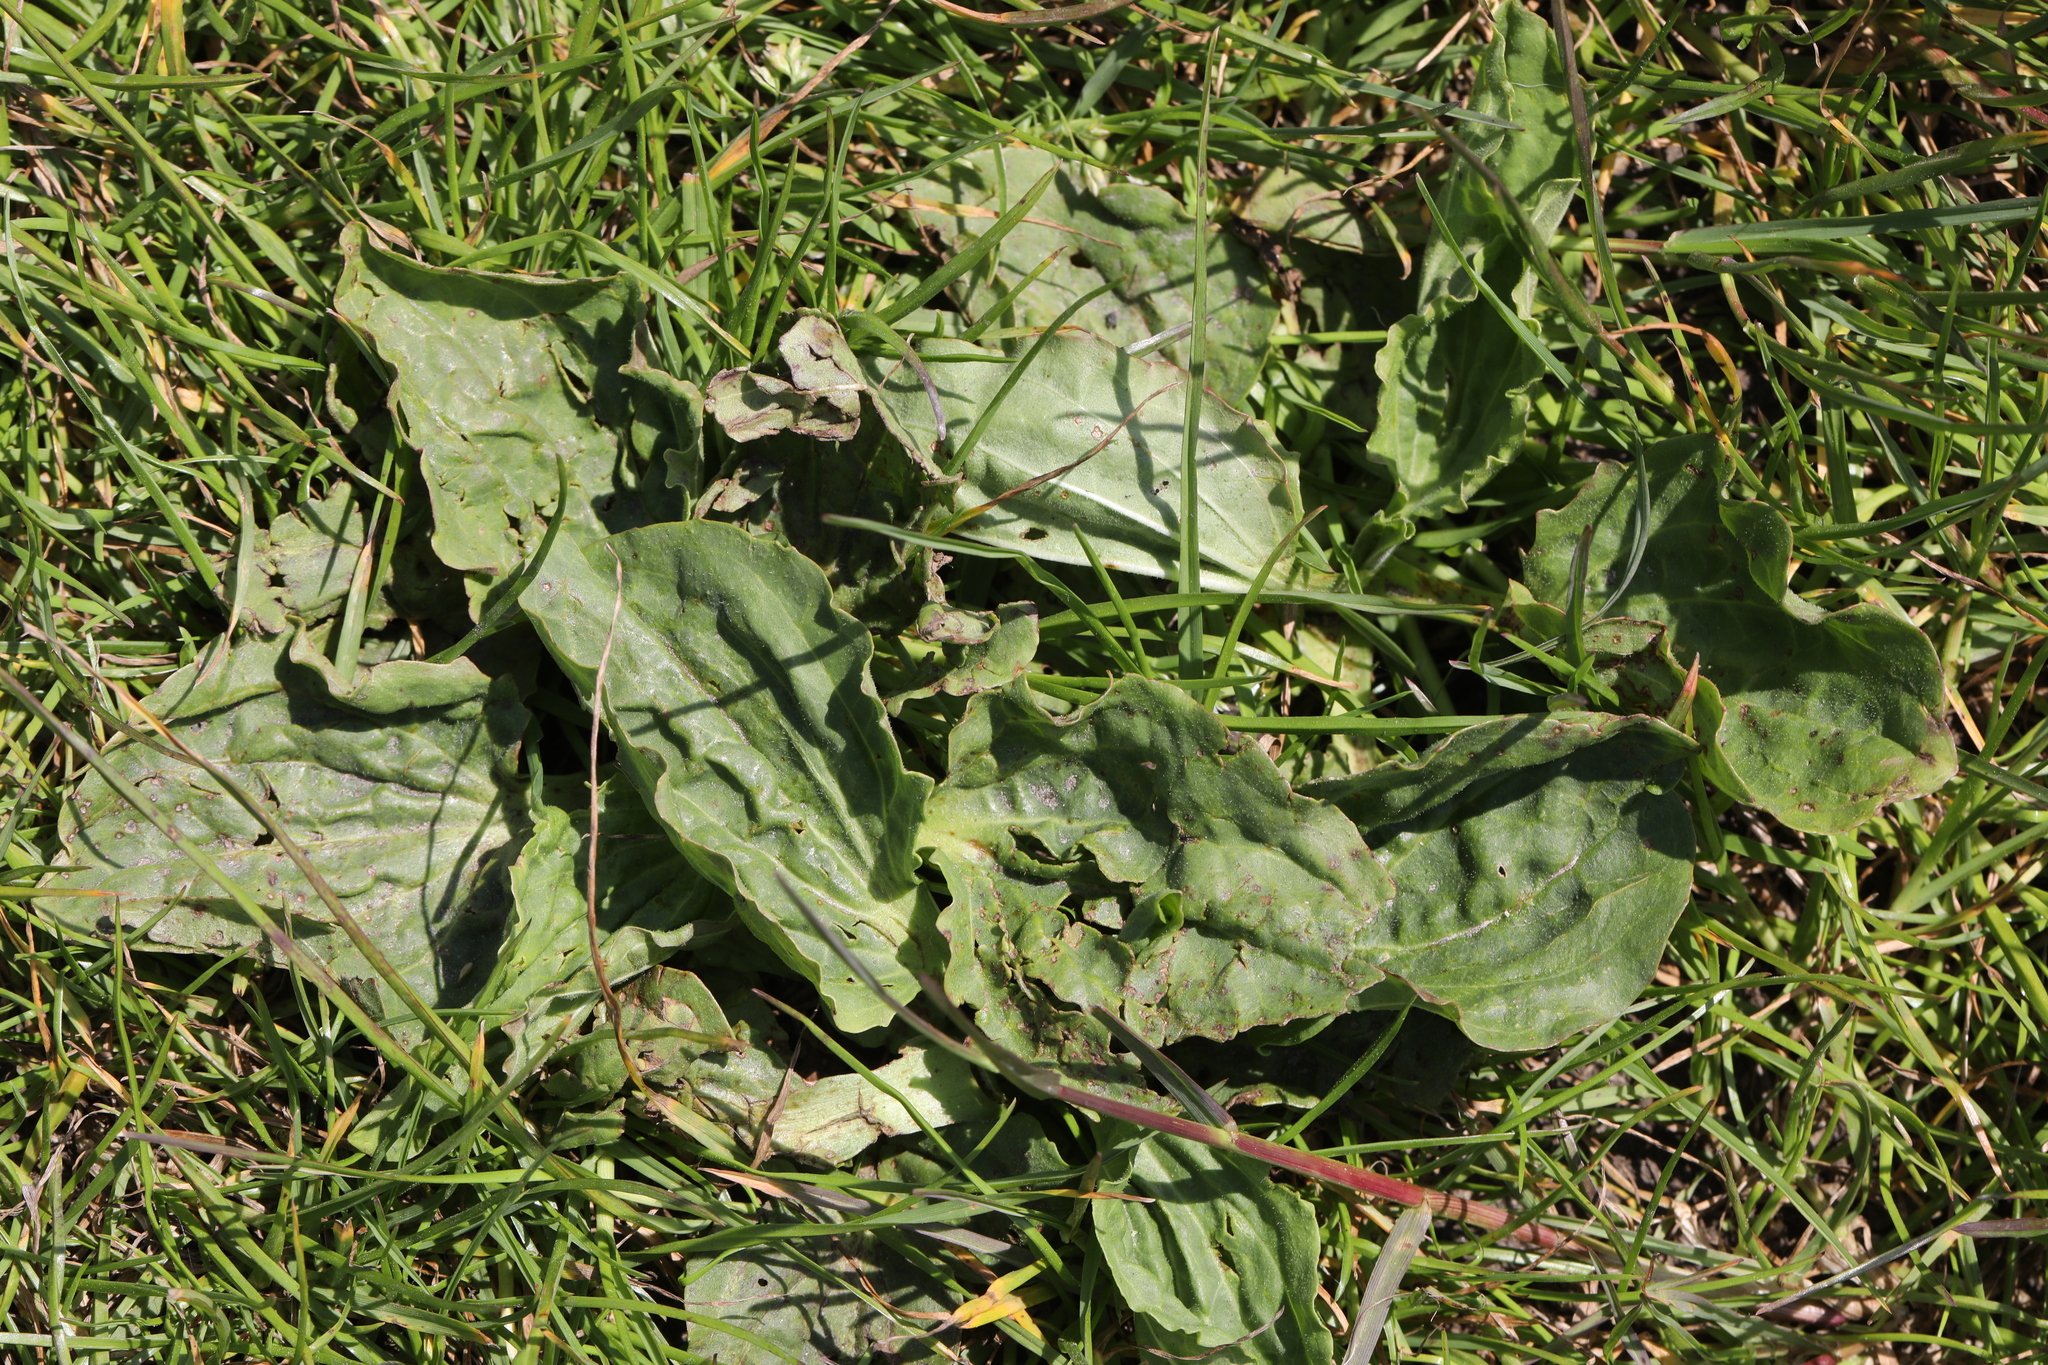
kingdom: Plantae
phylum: Tracheophyta
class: Magnoliopsida
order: Lamiales
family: Plantaginaceae
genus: Plantago
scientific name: Plantago major
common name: Common plantain
